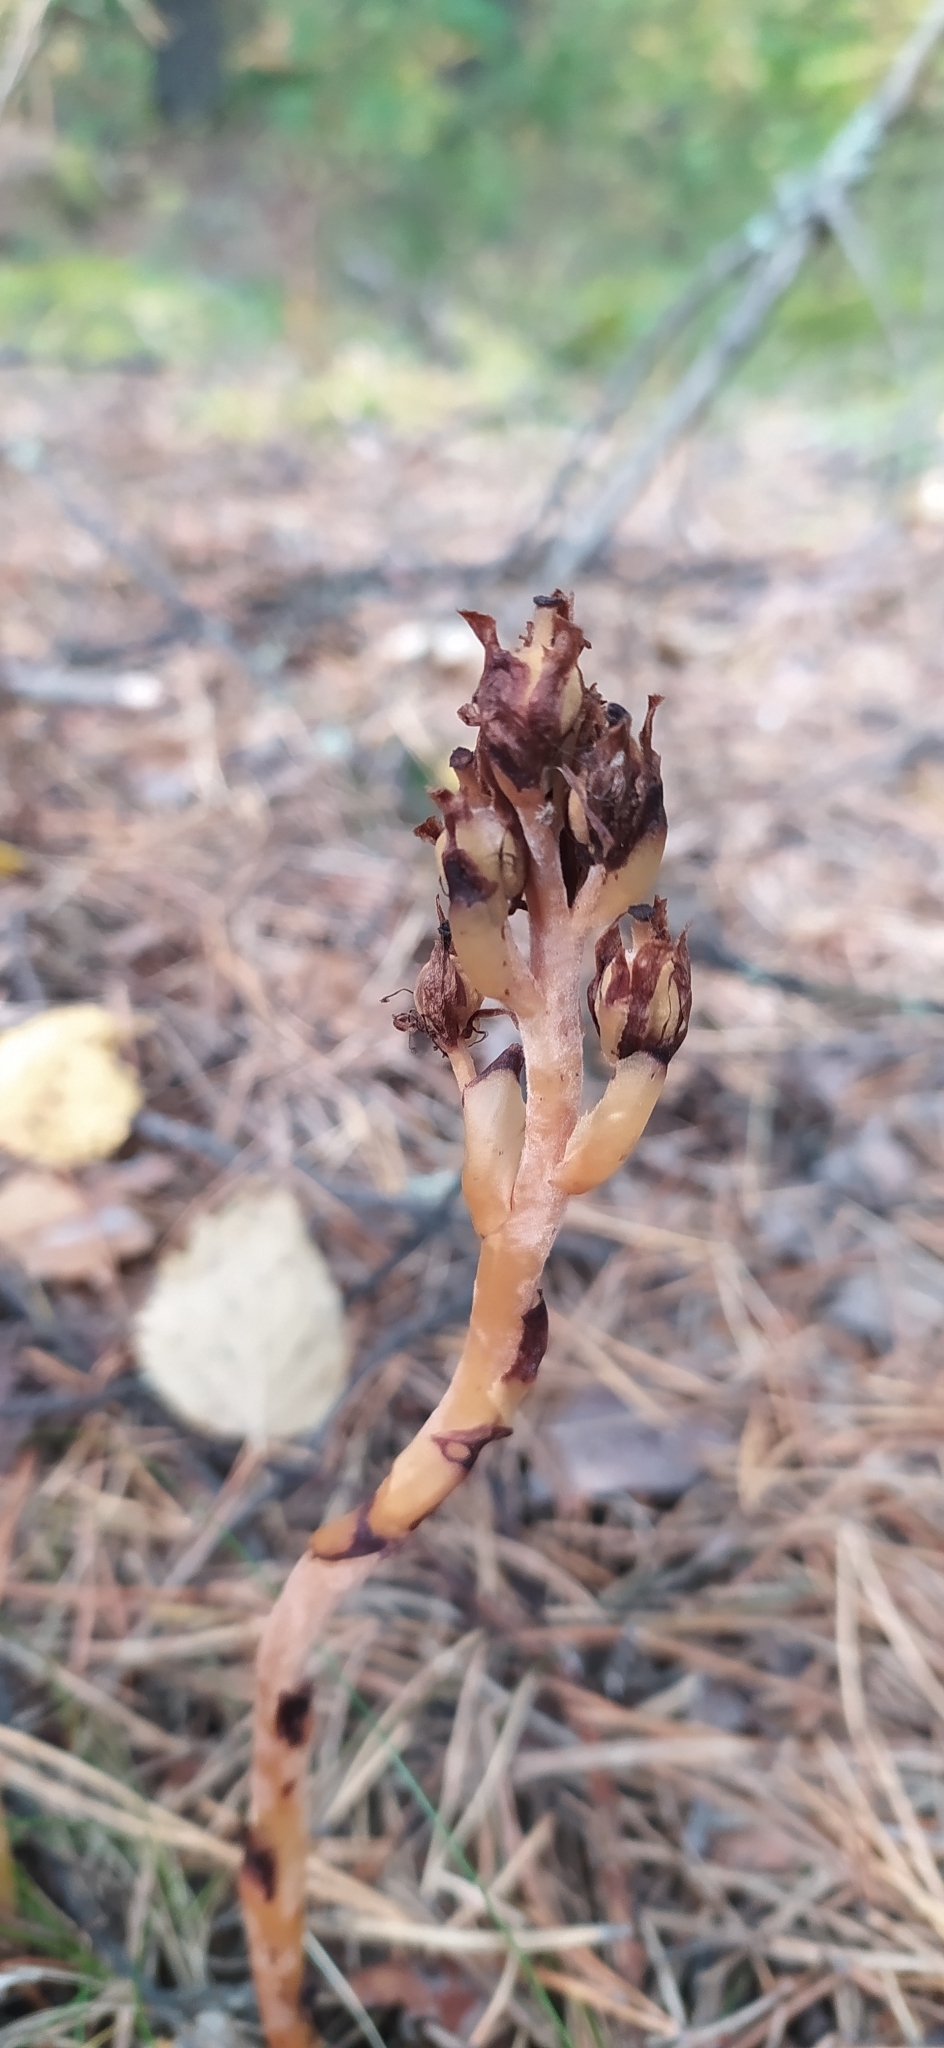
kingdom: Plantae
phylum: Tracheophyta
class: Magnoliopsida
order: Ericales
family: Ericaceae
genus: Hypopitys
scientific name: Hypopitys monotropa
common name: Yellow bird's-nest
